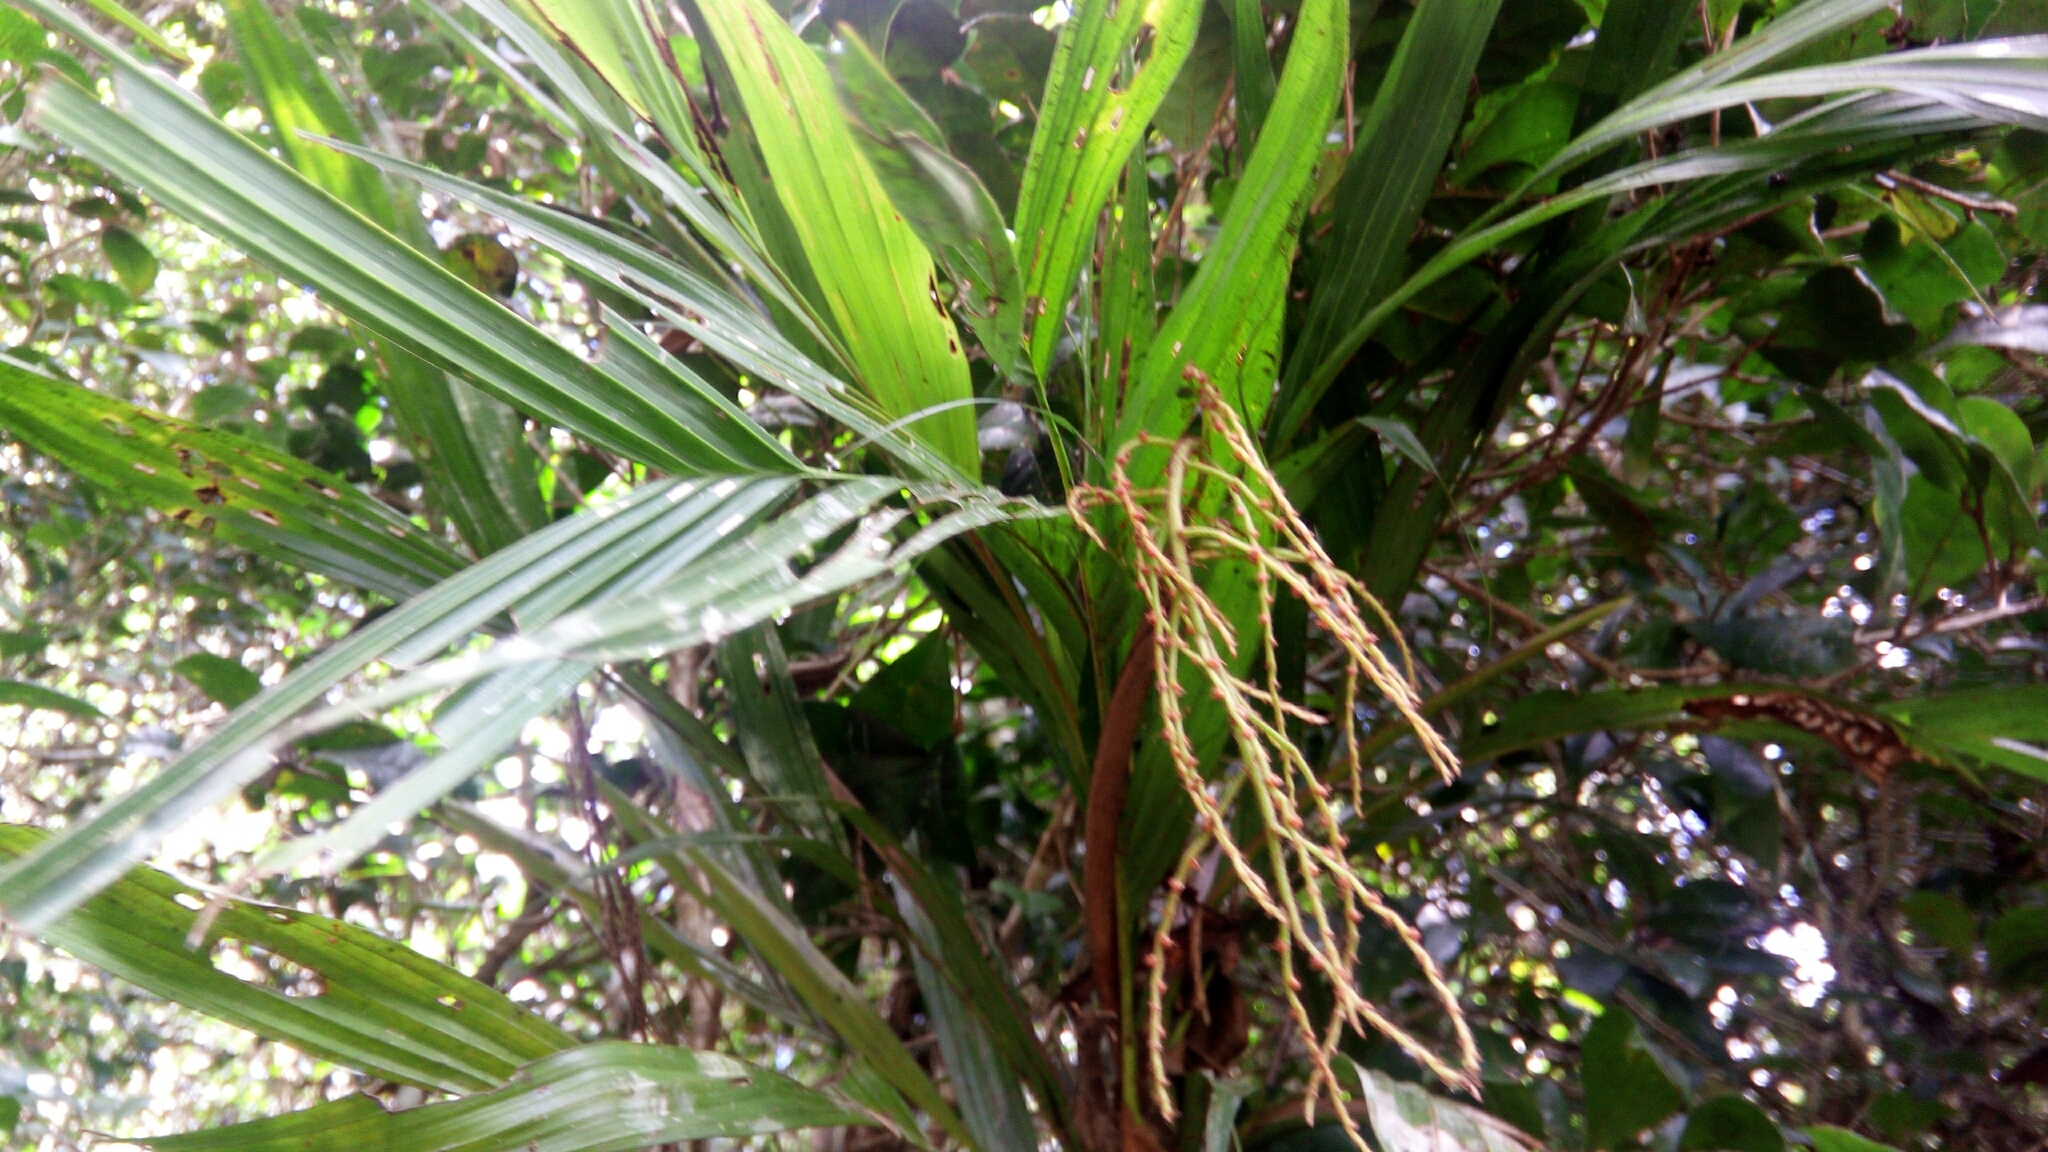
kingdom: Plantae
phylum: Tracheophyta
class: Liliopsida
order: Arecales
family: Arecaceae
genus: Dypsis
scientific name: Dypsis hildebrandtii
